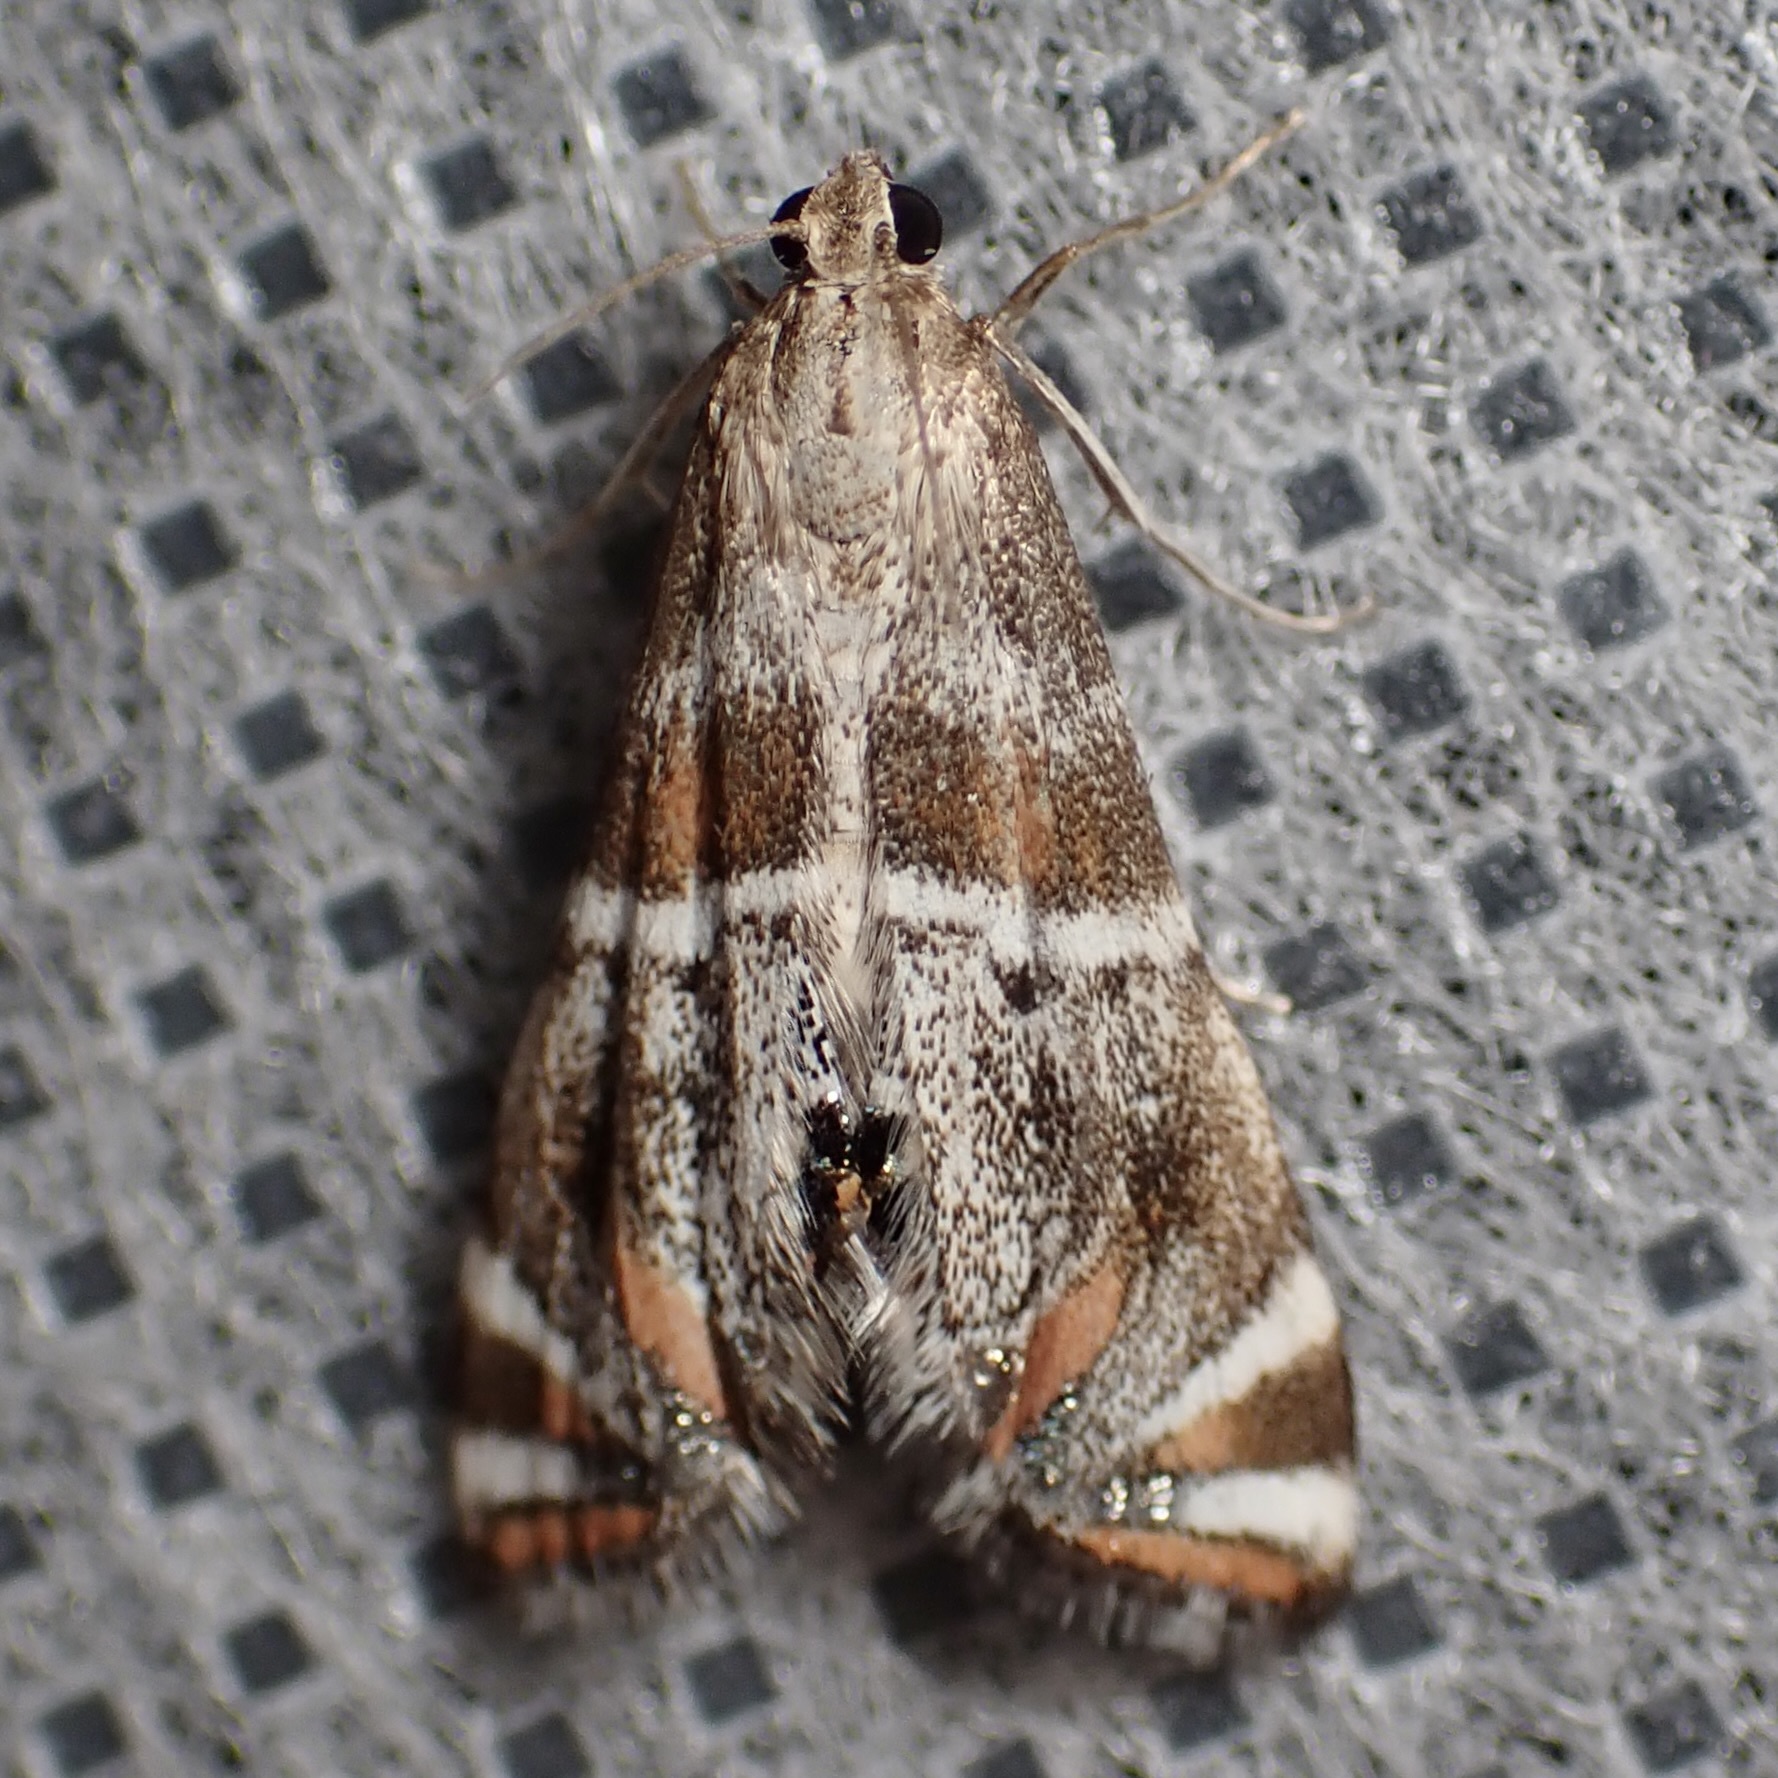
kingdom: Animalia
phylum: Arthropoda
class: Insecta
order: Lepidoptera
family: Crambidae
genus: Petrophila
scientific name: Petrophila jaliscalis
